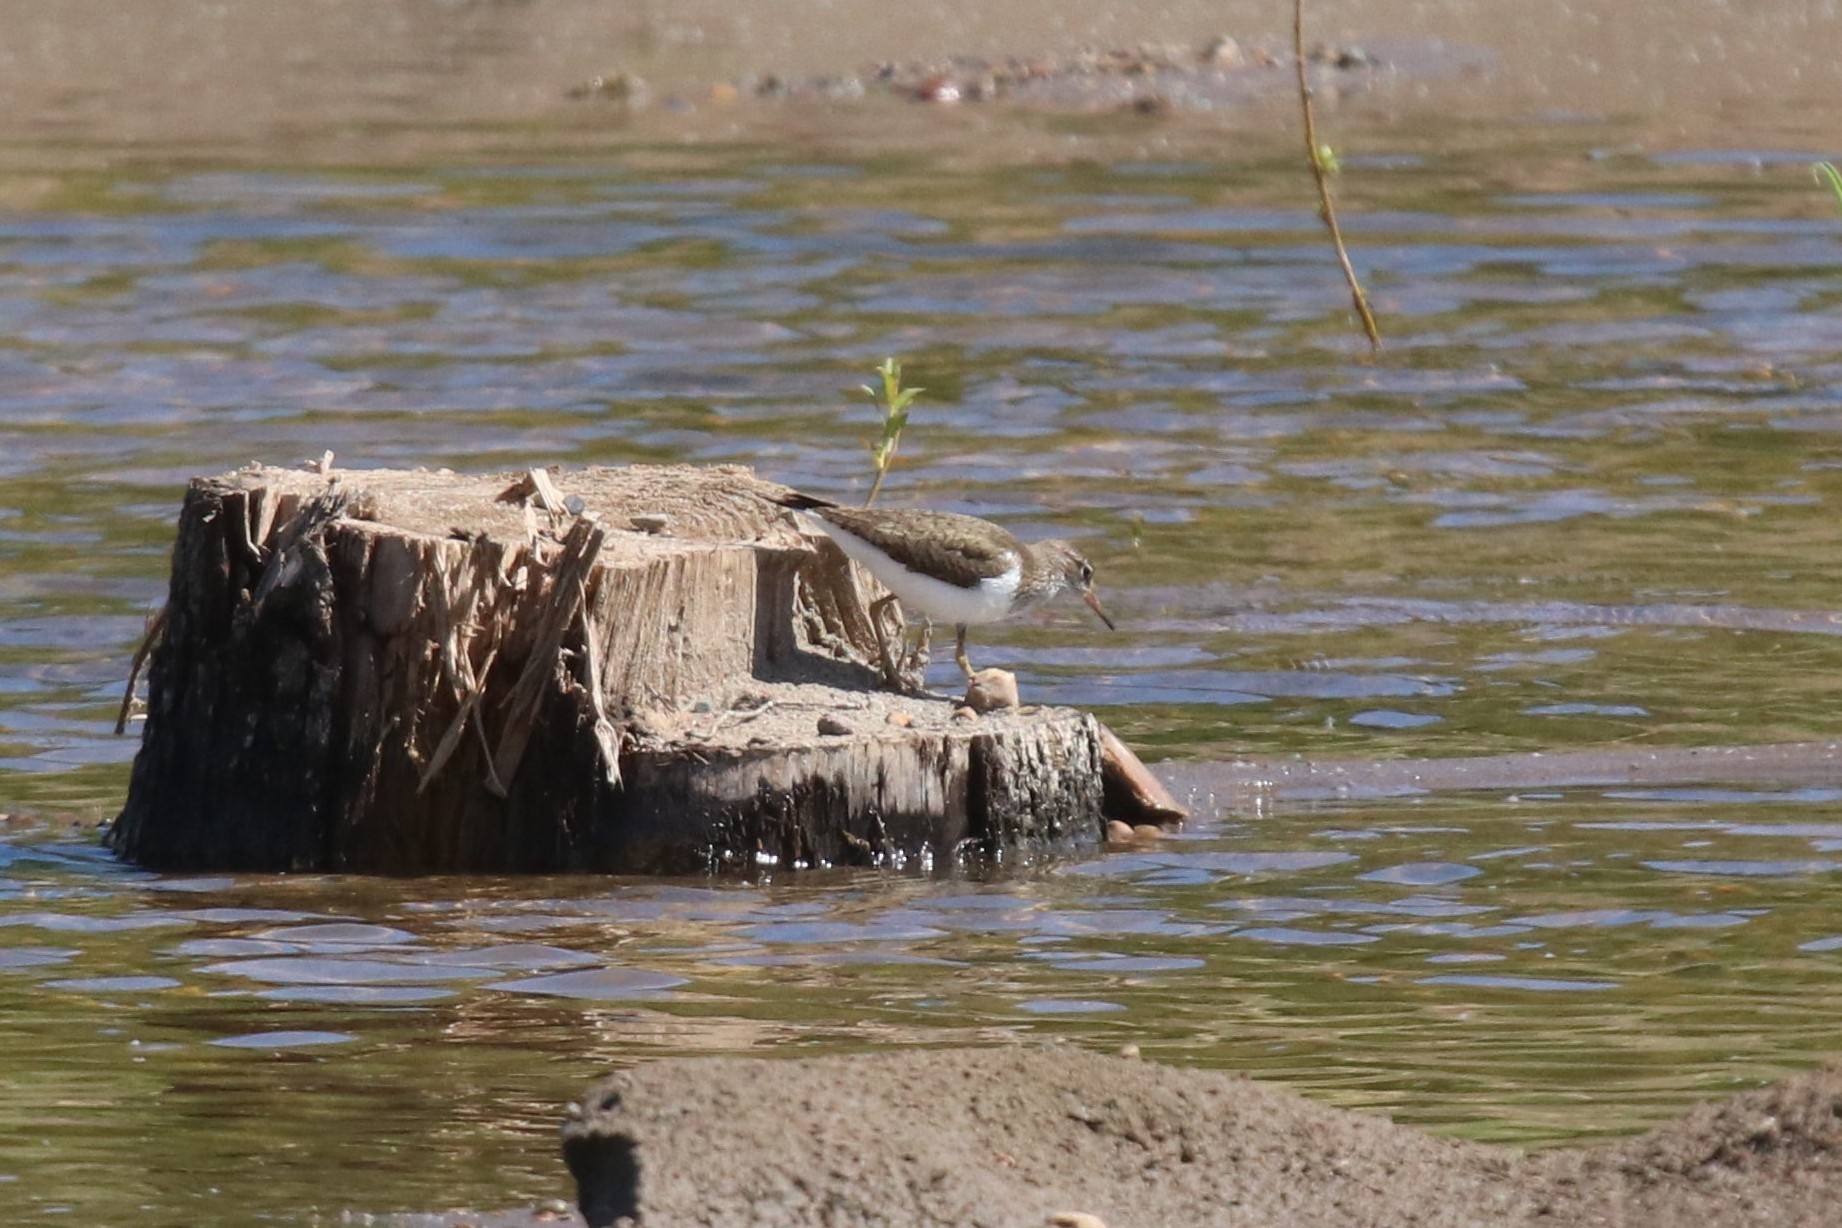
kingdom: Animalia
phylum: Chordata
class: Aves
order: Charadriiformes
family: Scolopacidae
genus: Actitis
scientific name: Actitis hypoleucos
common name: Common sandpiper
